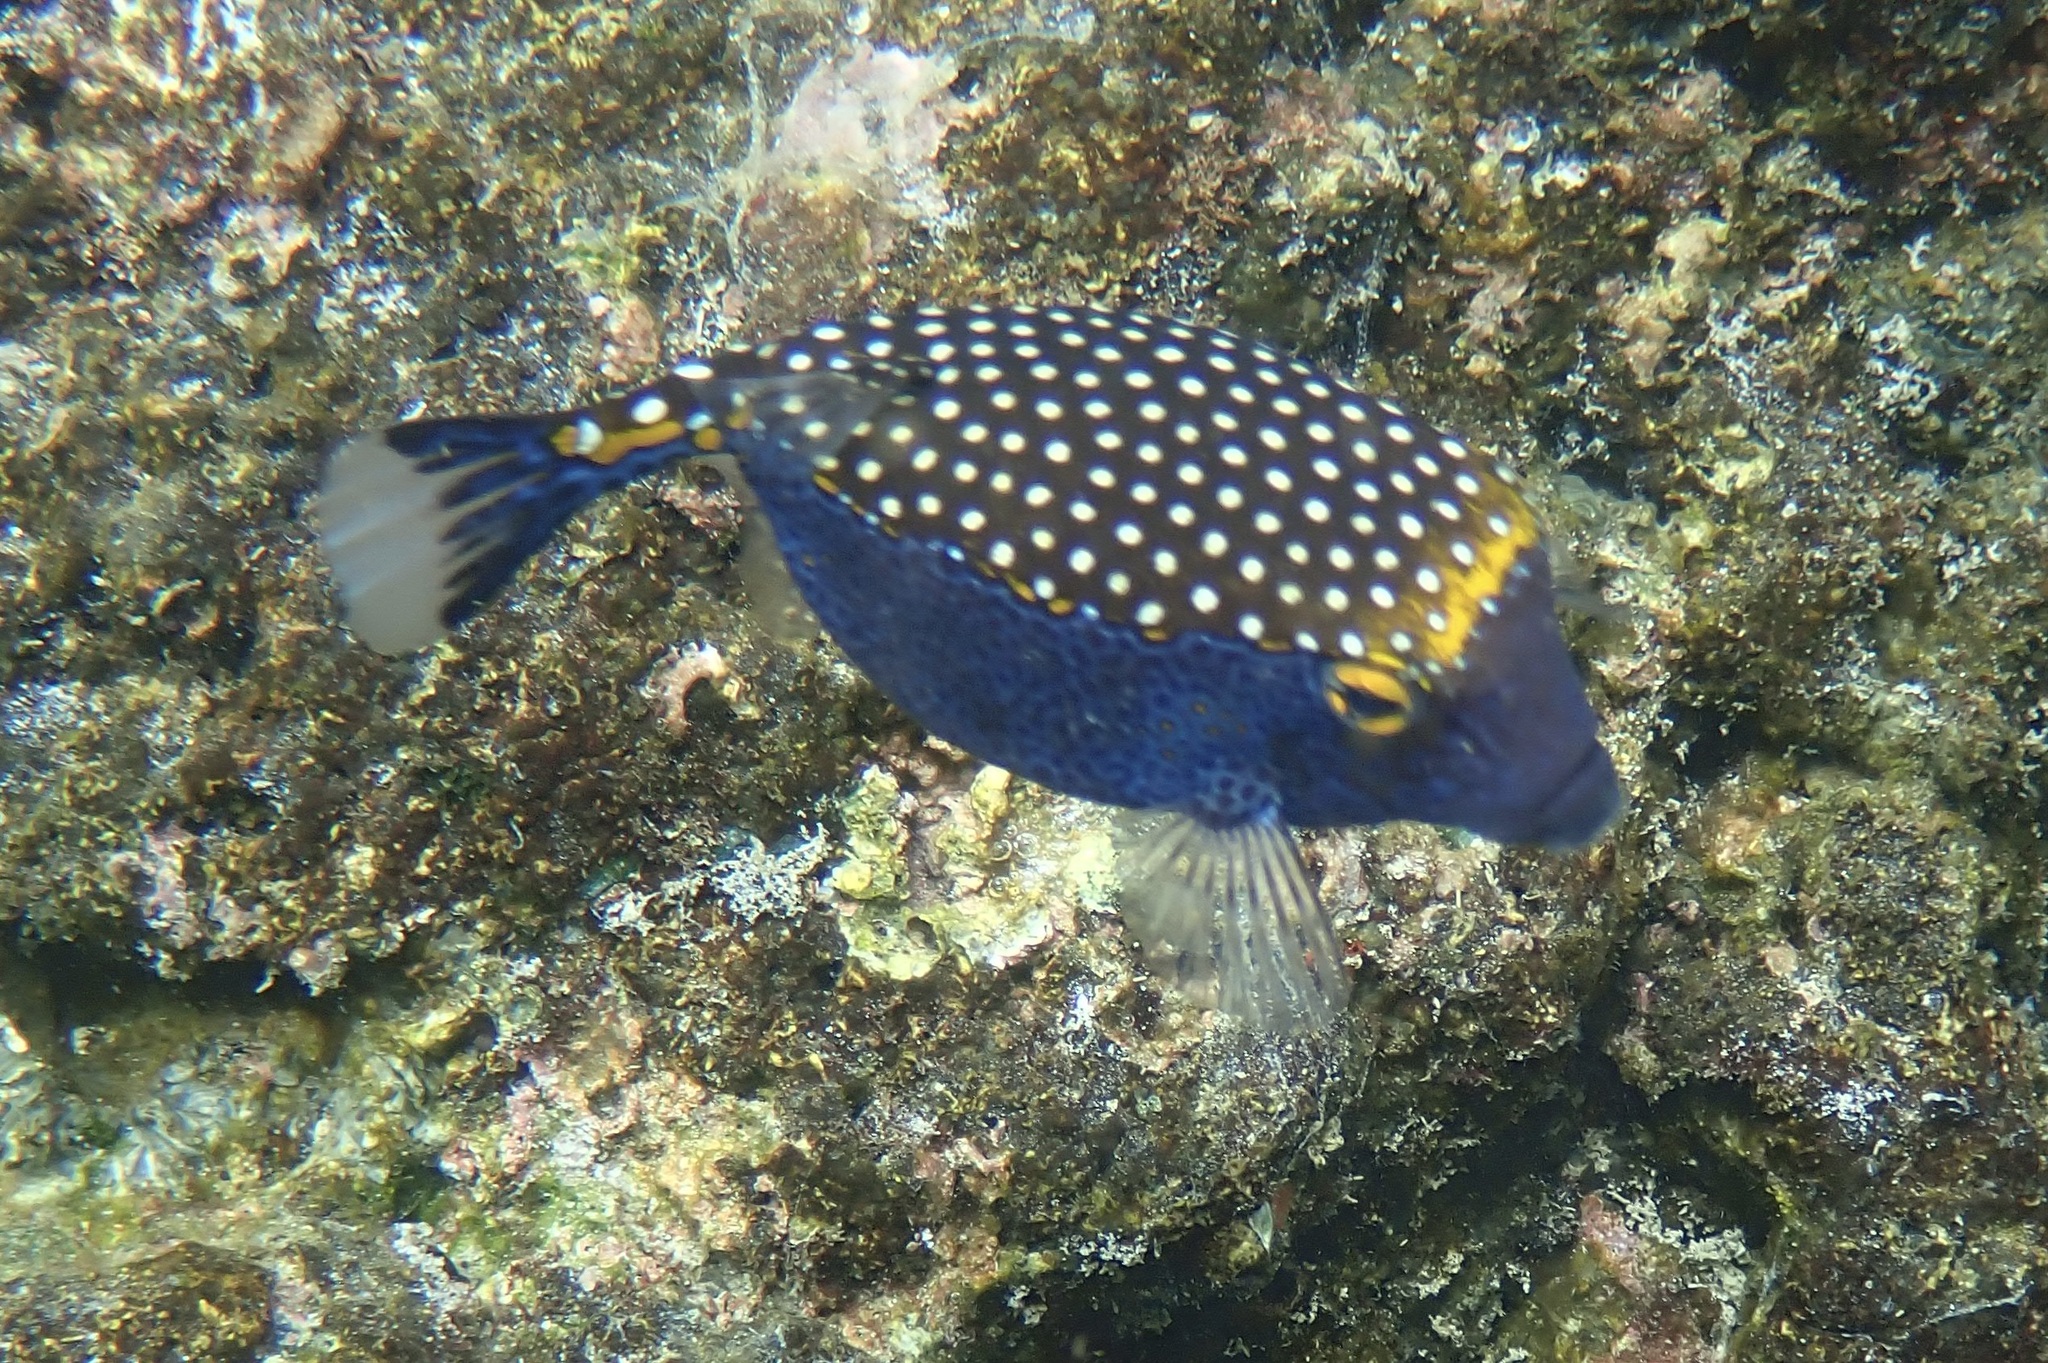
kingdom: Animalia
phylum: Chordata
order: Tetraodontiformes
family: Ostraciidae
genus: Ostracion
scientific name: Ostracion meleagris
